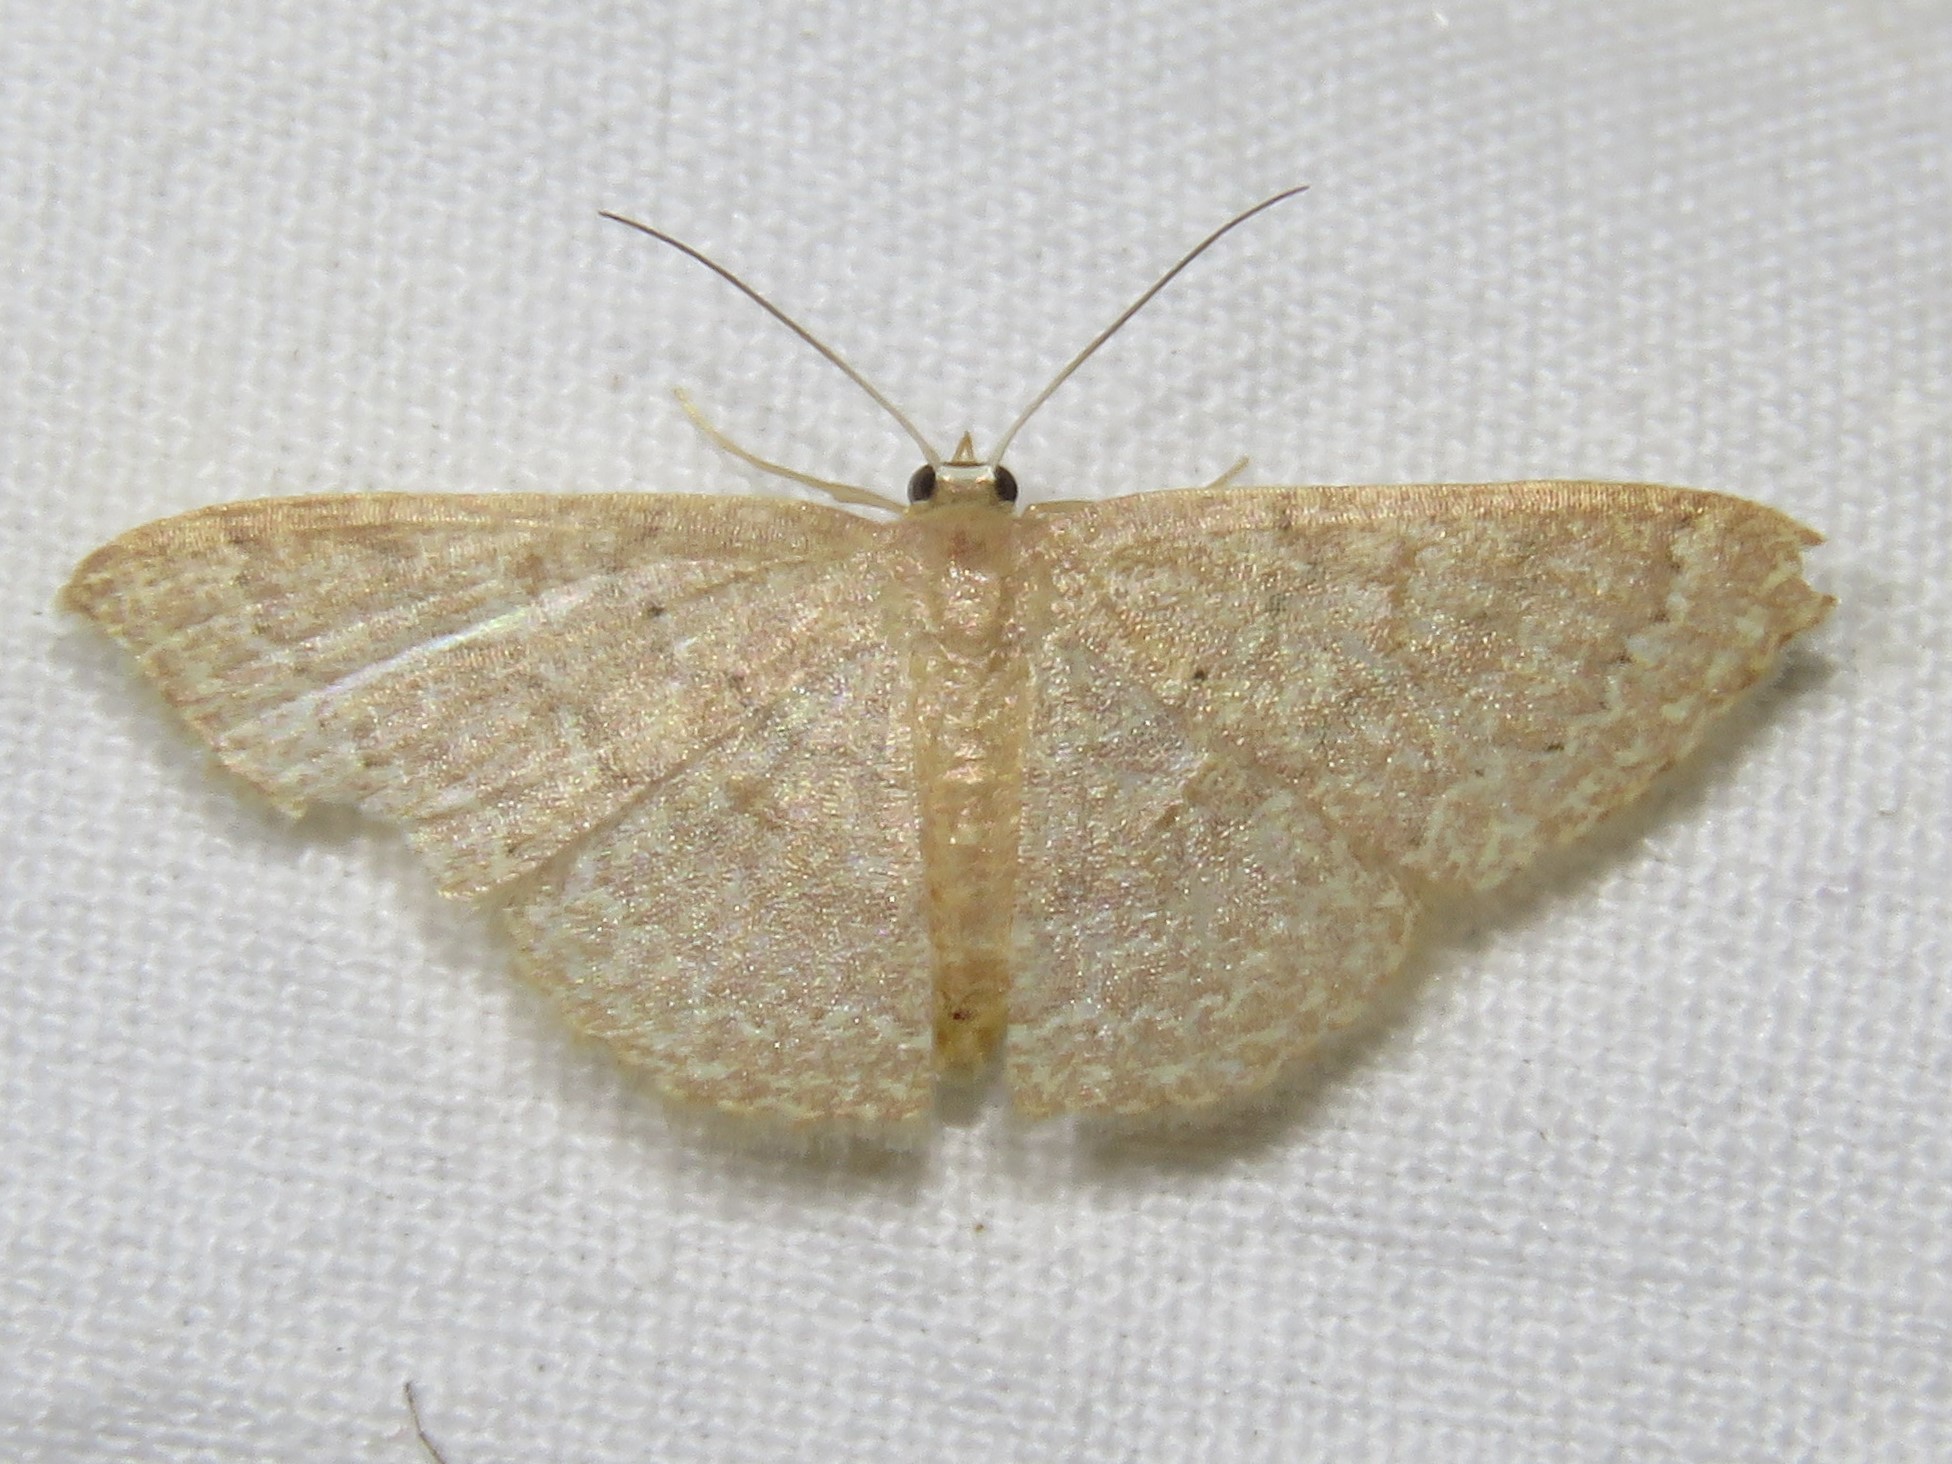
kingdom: Animalia
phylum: Arthropoda
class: Insecta
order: Lepidoptera
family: Geometridae
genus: Pleuroprucha
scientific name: Pleuroprucha insulsaria
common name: Common tan wave
